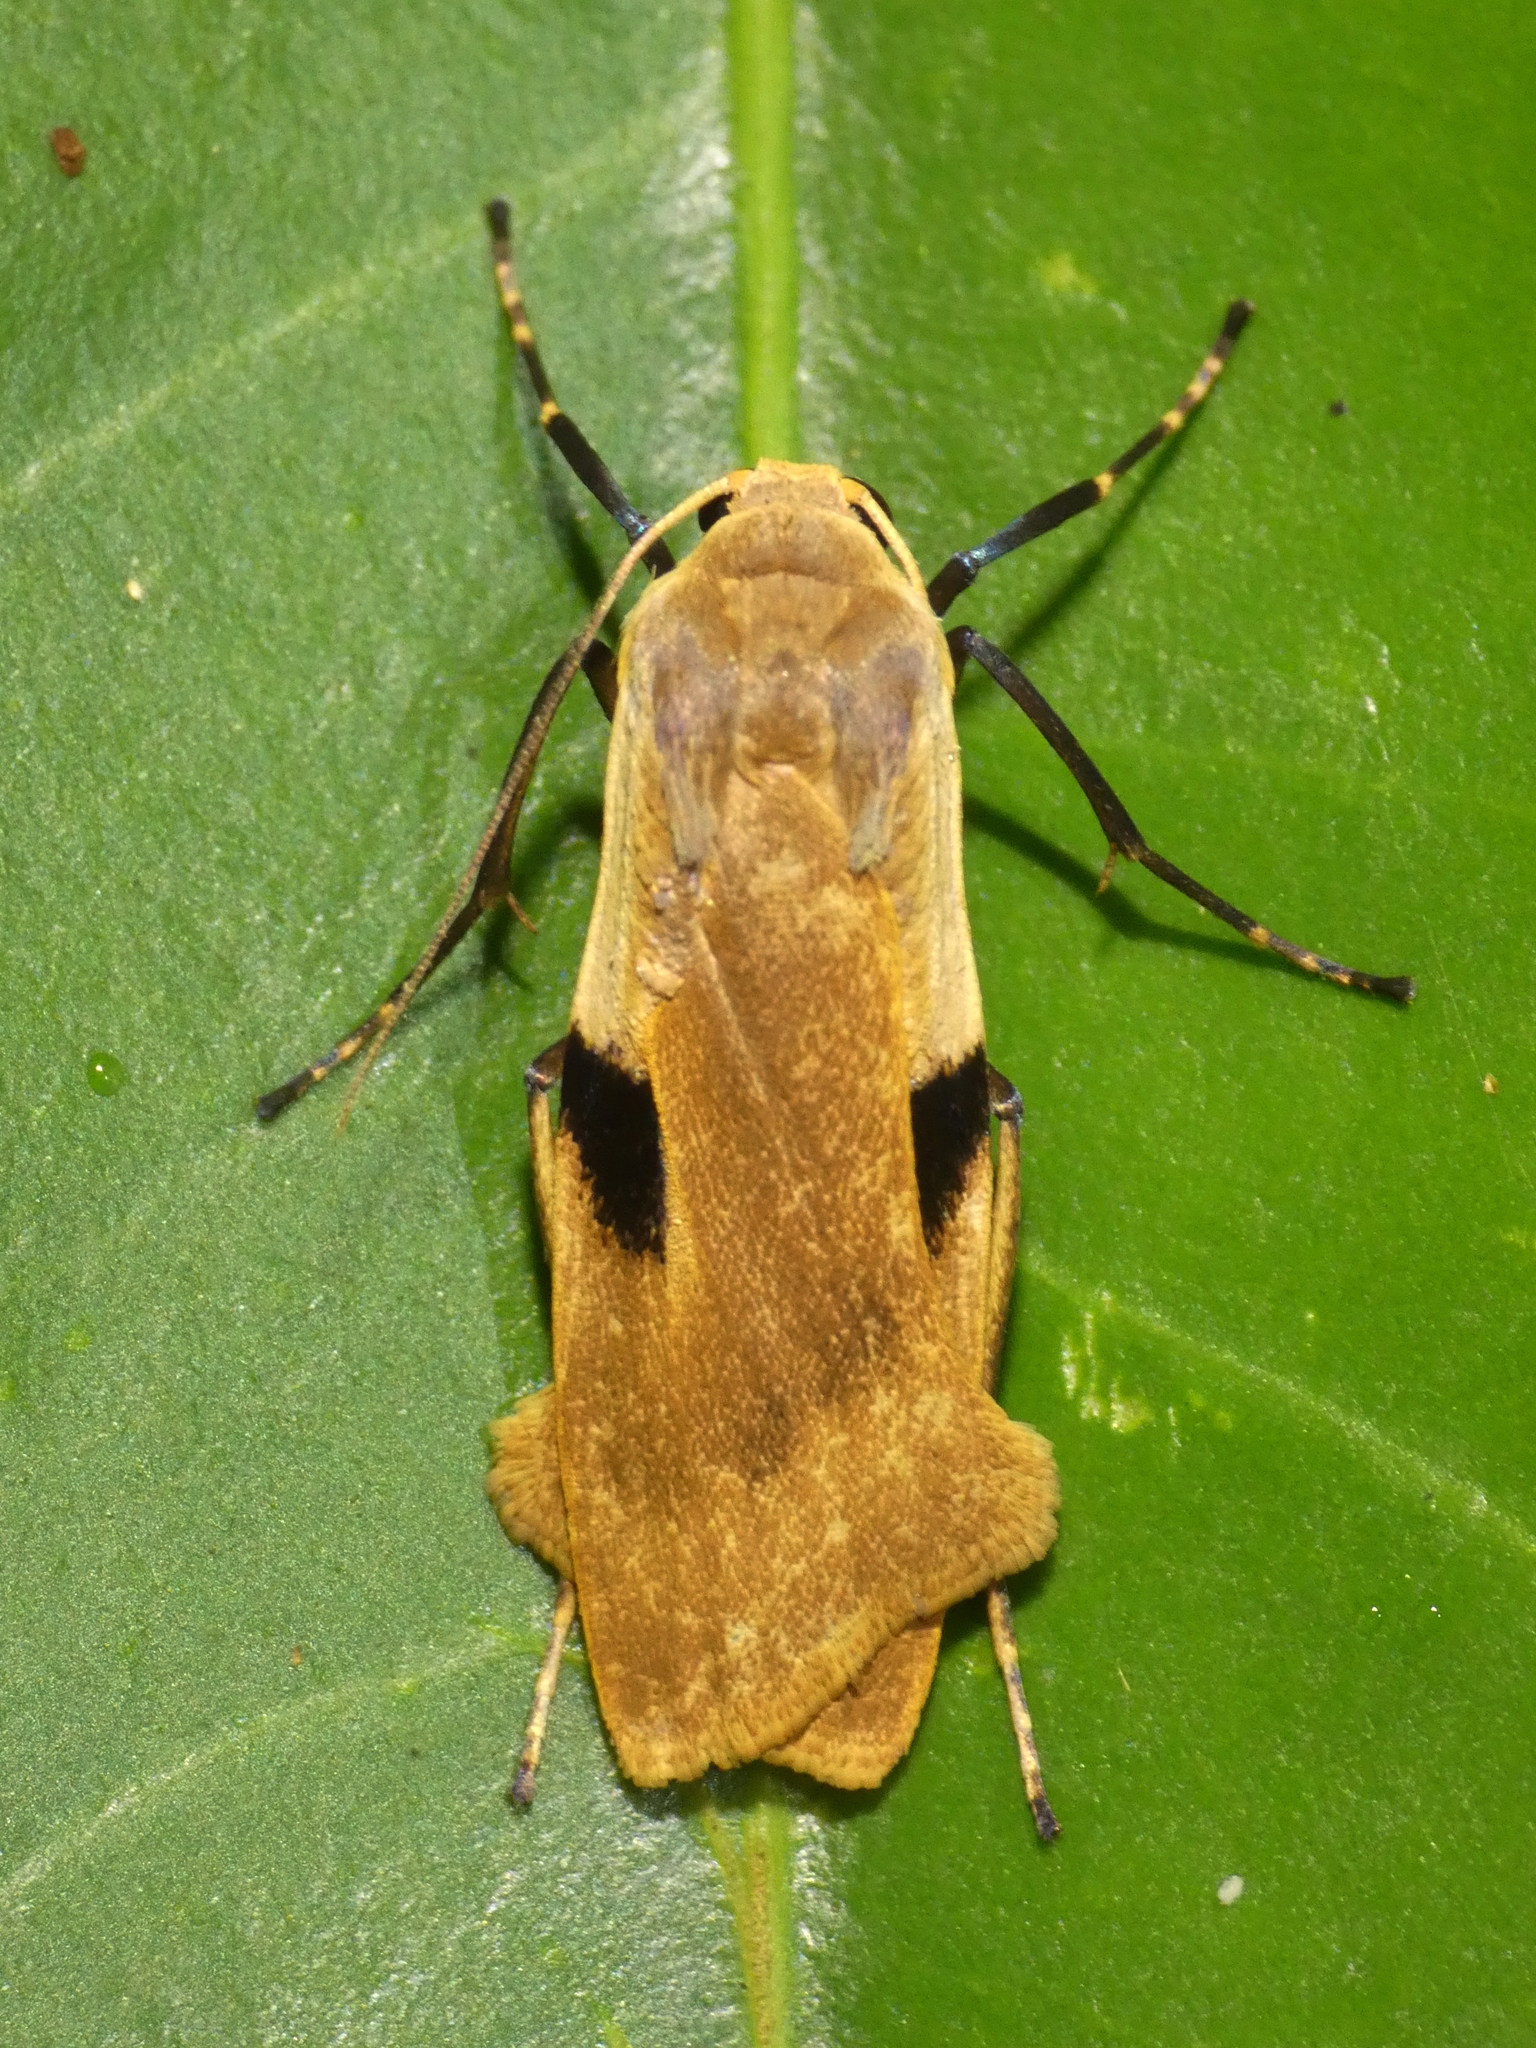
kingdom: Animalia
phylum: Arthropoda
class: Insecta
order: Lepidoptera
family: Erebidae
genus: Teulisna
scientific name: Teulisna bipunctata
